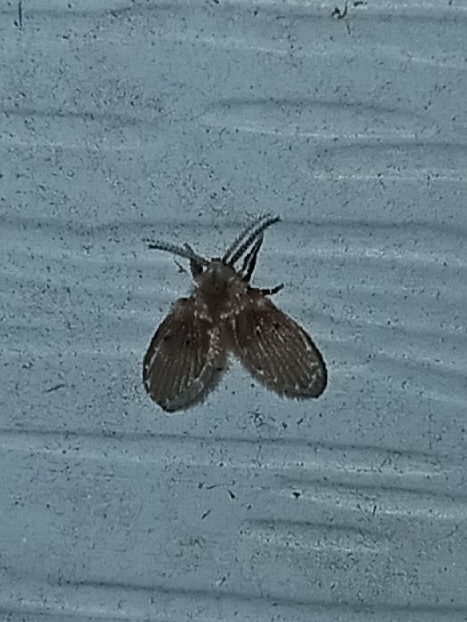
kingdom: Animalia
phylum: Arthropoda
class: Insecta
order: Diptera
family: Psychodidae
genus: Clogmia
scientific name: Clogmia albipunctatus
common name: White-spotted moth fly
